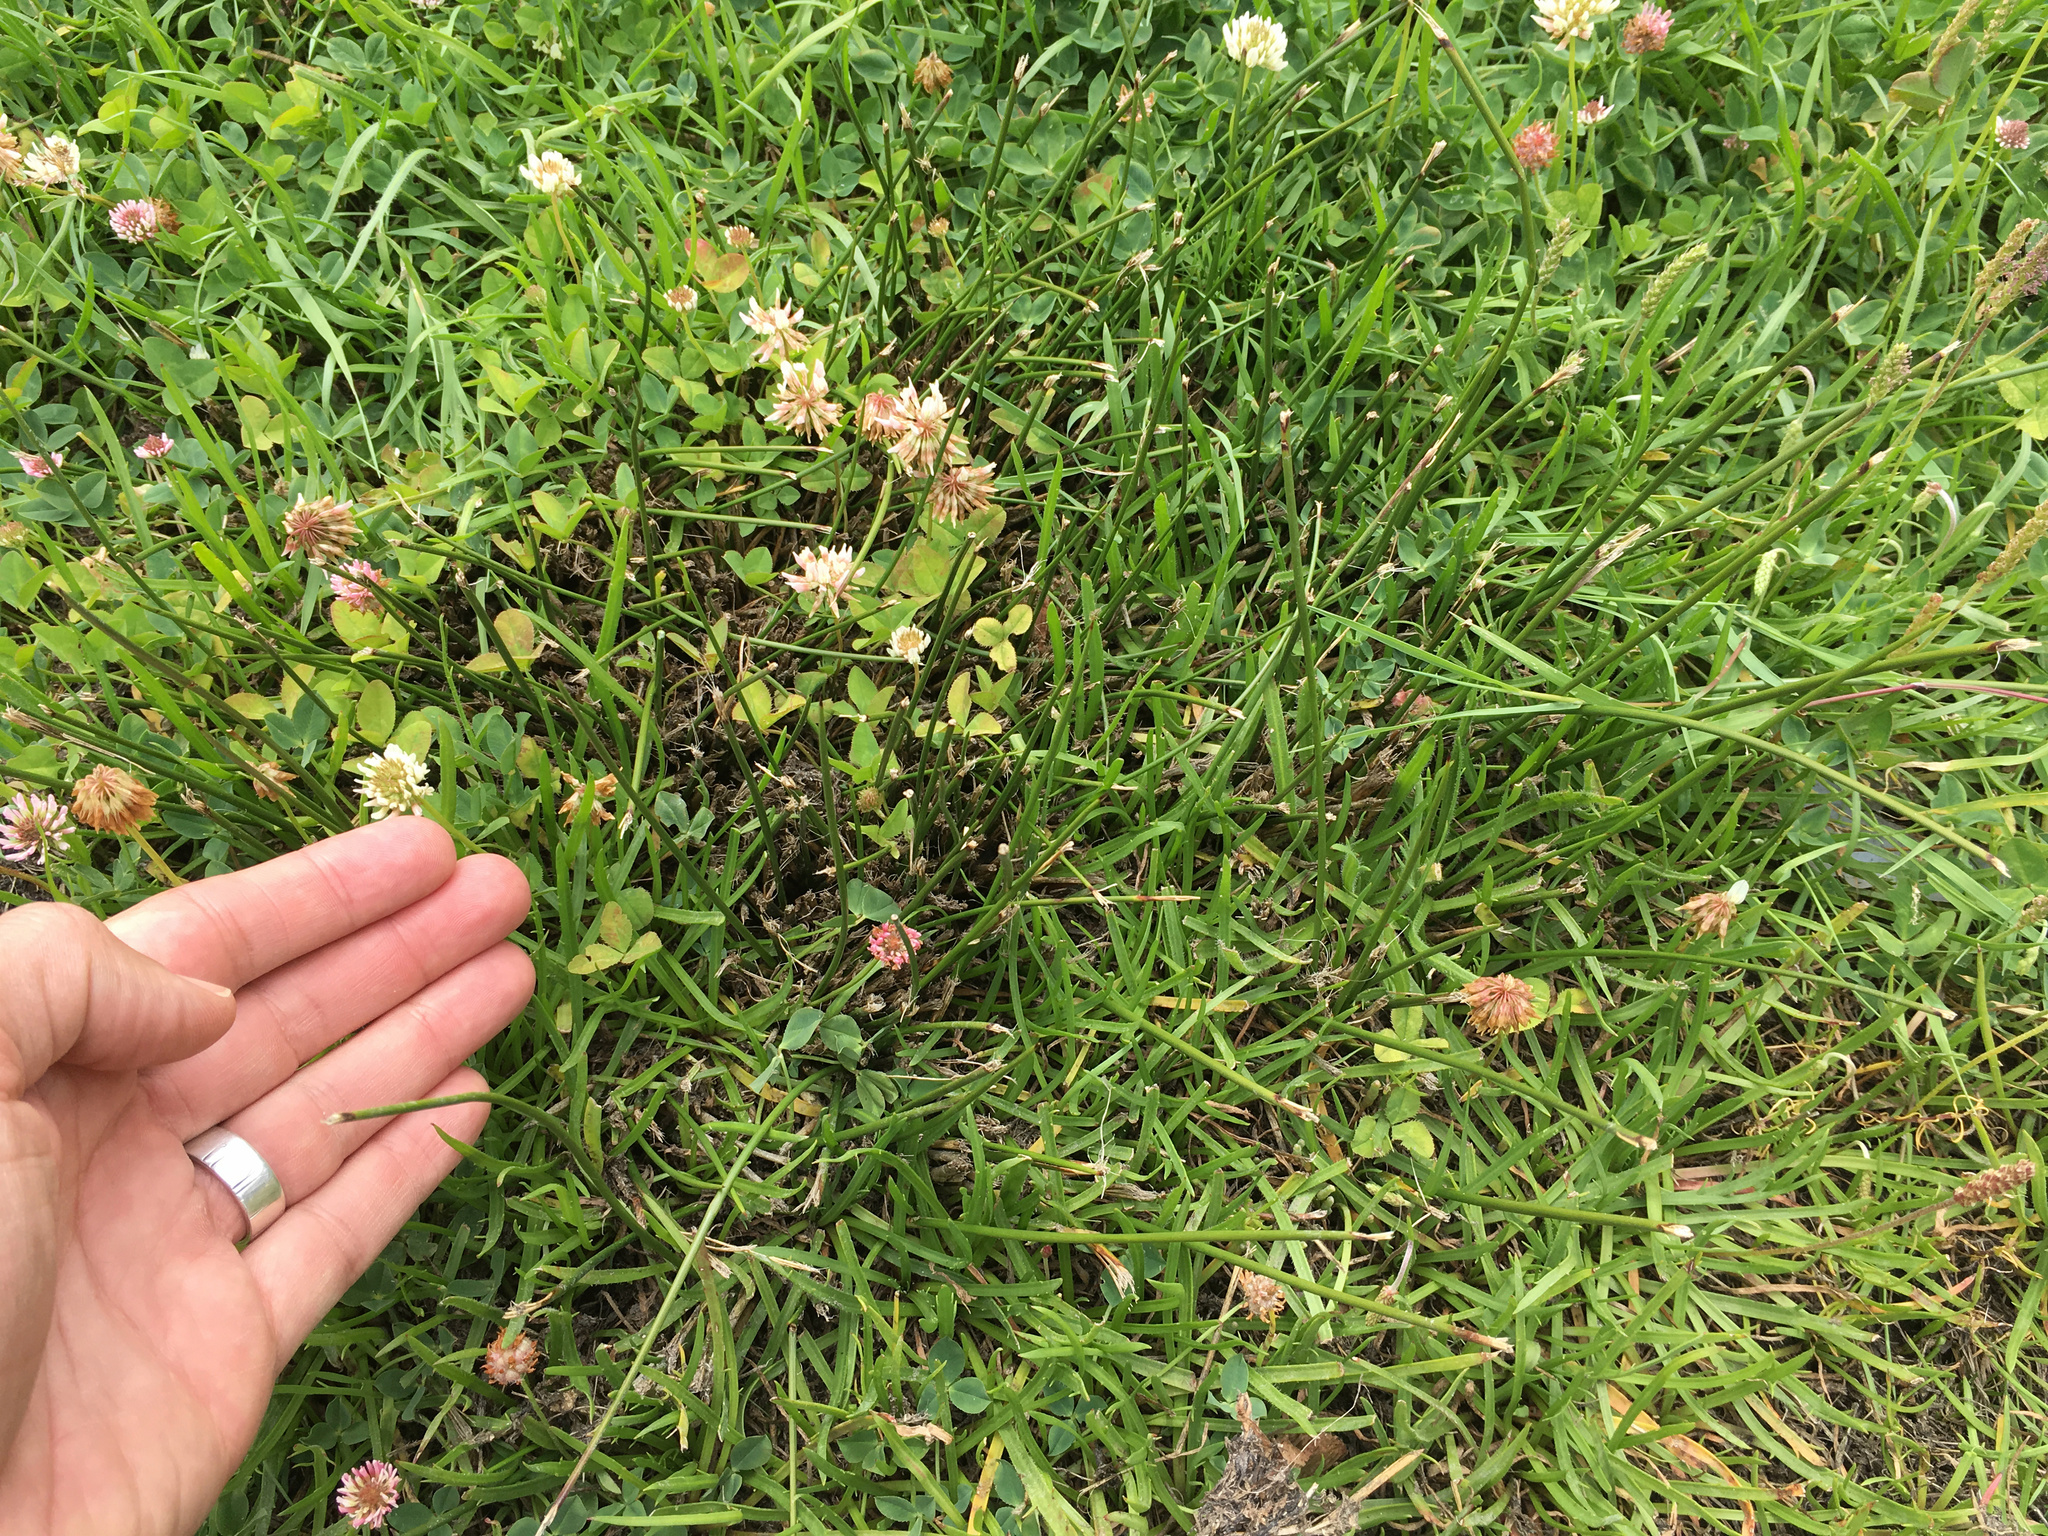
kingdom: Plantae
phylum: Tracheophyta
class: Liliopsida
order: Poales
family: Juncaceae
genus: Juncus
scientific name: Juncus effusus
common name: Soft rush
